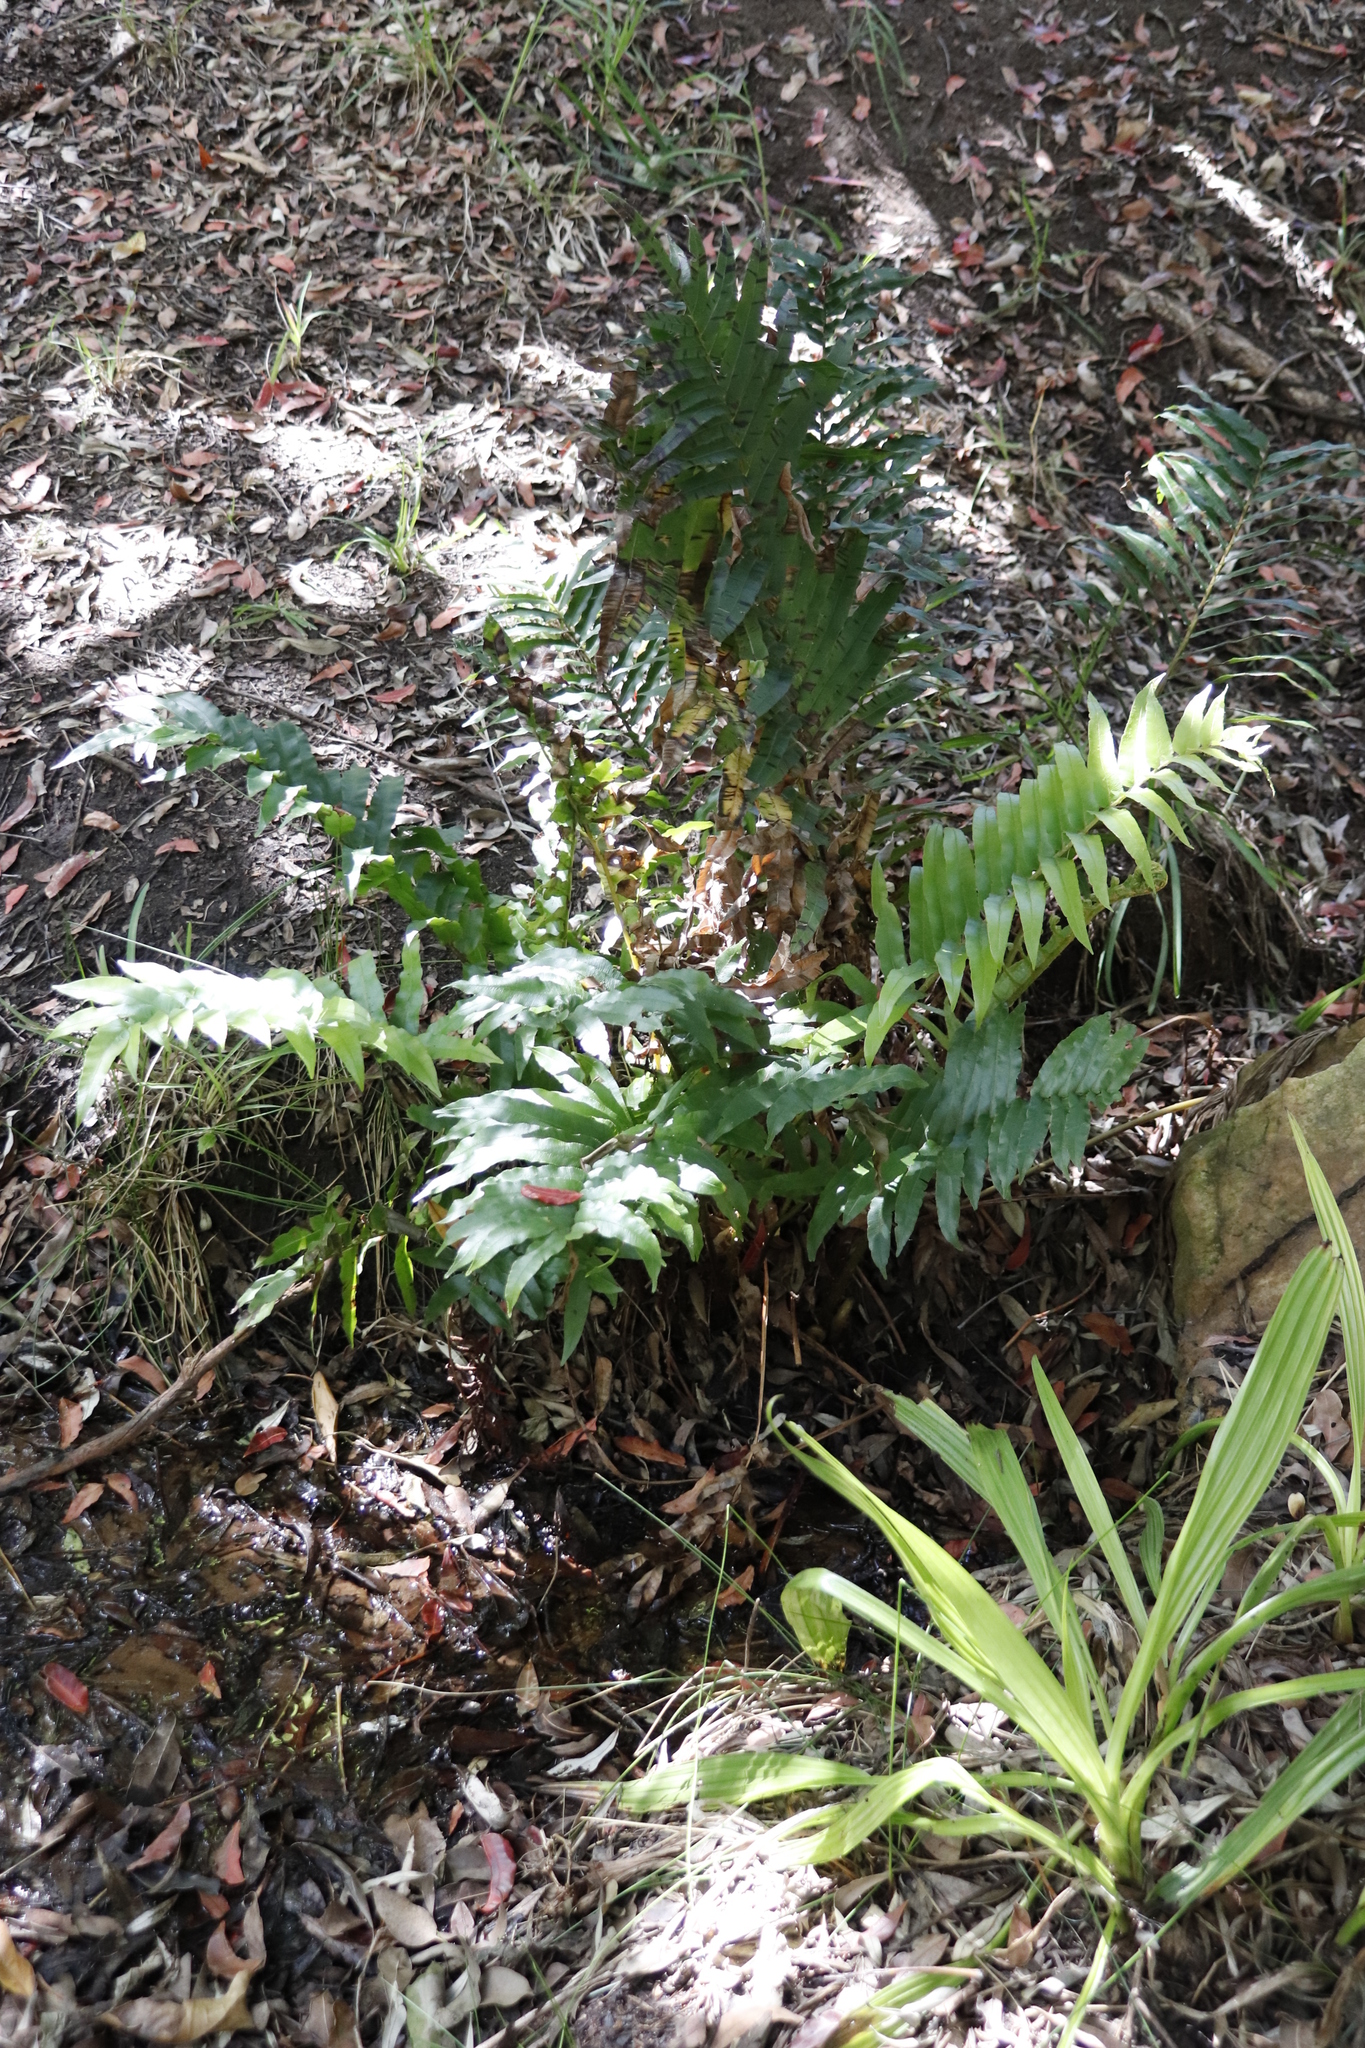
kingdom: Plantae
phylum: Tracheophyta
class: Polypodiopsida
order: Polypodiales
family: Blechnaceae
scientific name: Blechnaceae
